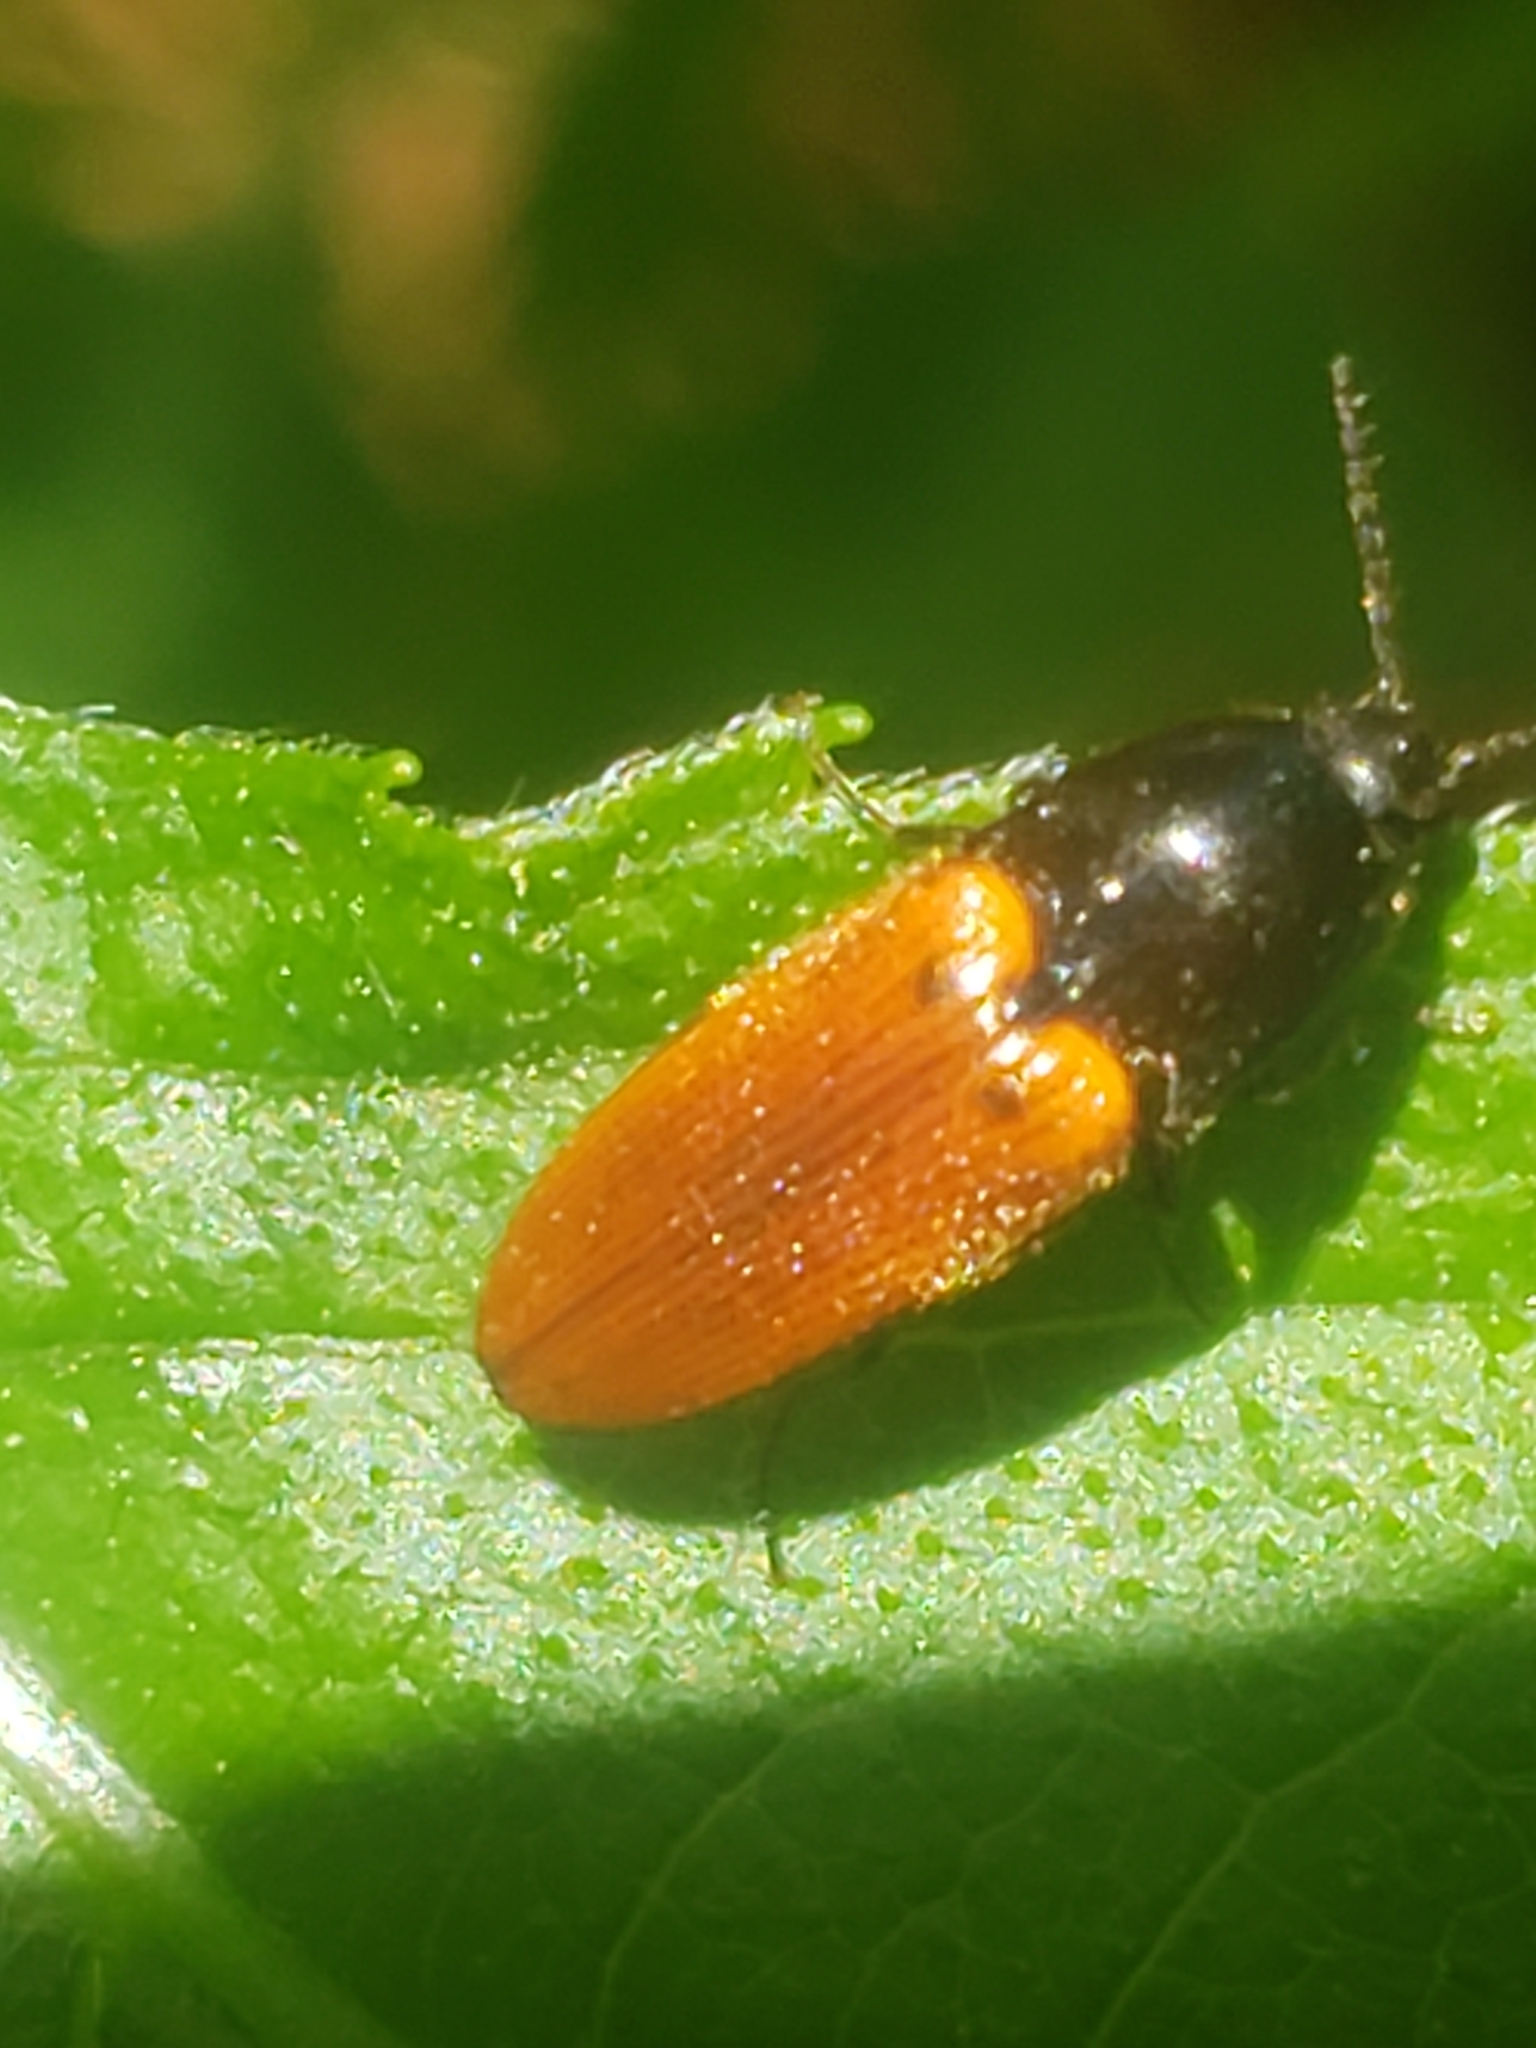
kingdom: Animalia
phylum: Arthropoda
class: Insecta
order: Coleoptera
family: Elateridae
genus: Ampedus
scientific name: Ampedus sanguinipennis
